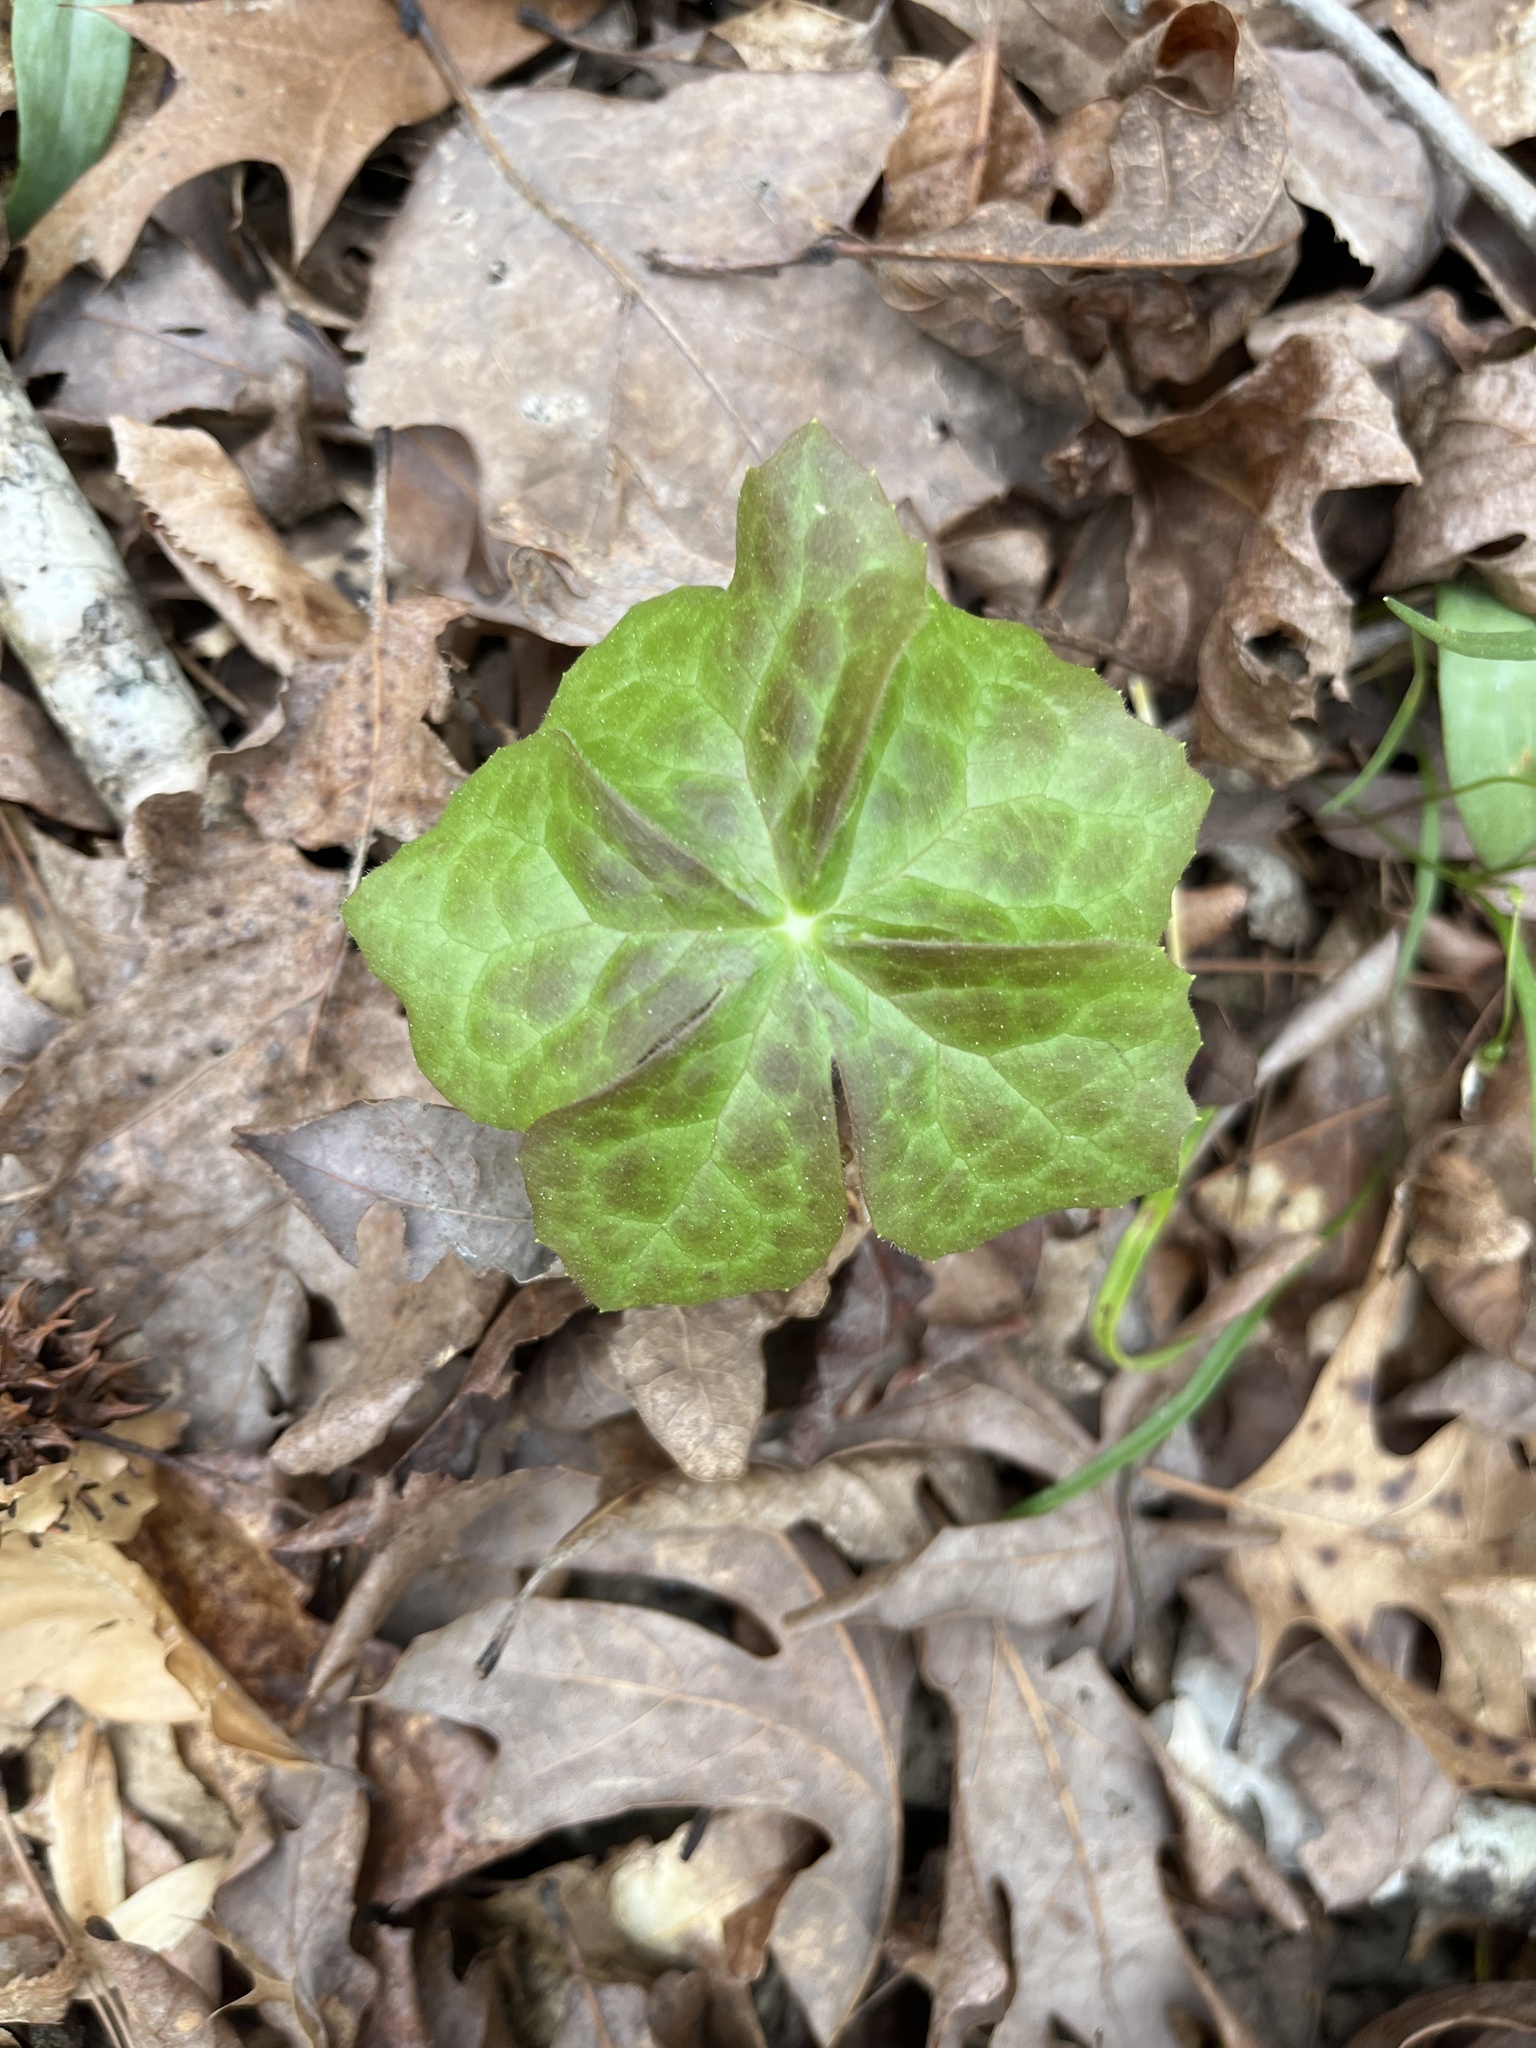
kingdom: Plantae
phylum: Tracheophyta
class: Magnoliopsida
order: Ranunculales
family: Berberidaceae
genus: Podophyllum
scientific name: Podophyllum peltatum
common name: Wild mandrake
